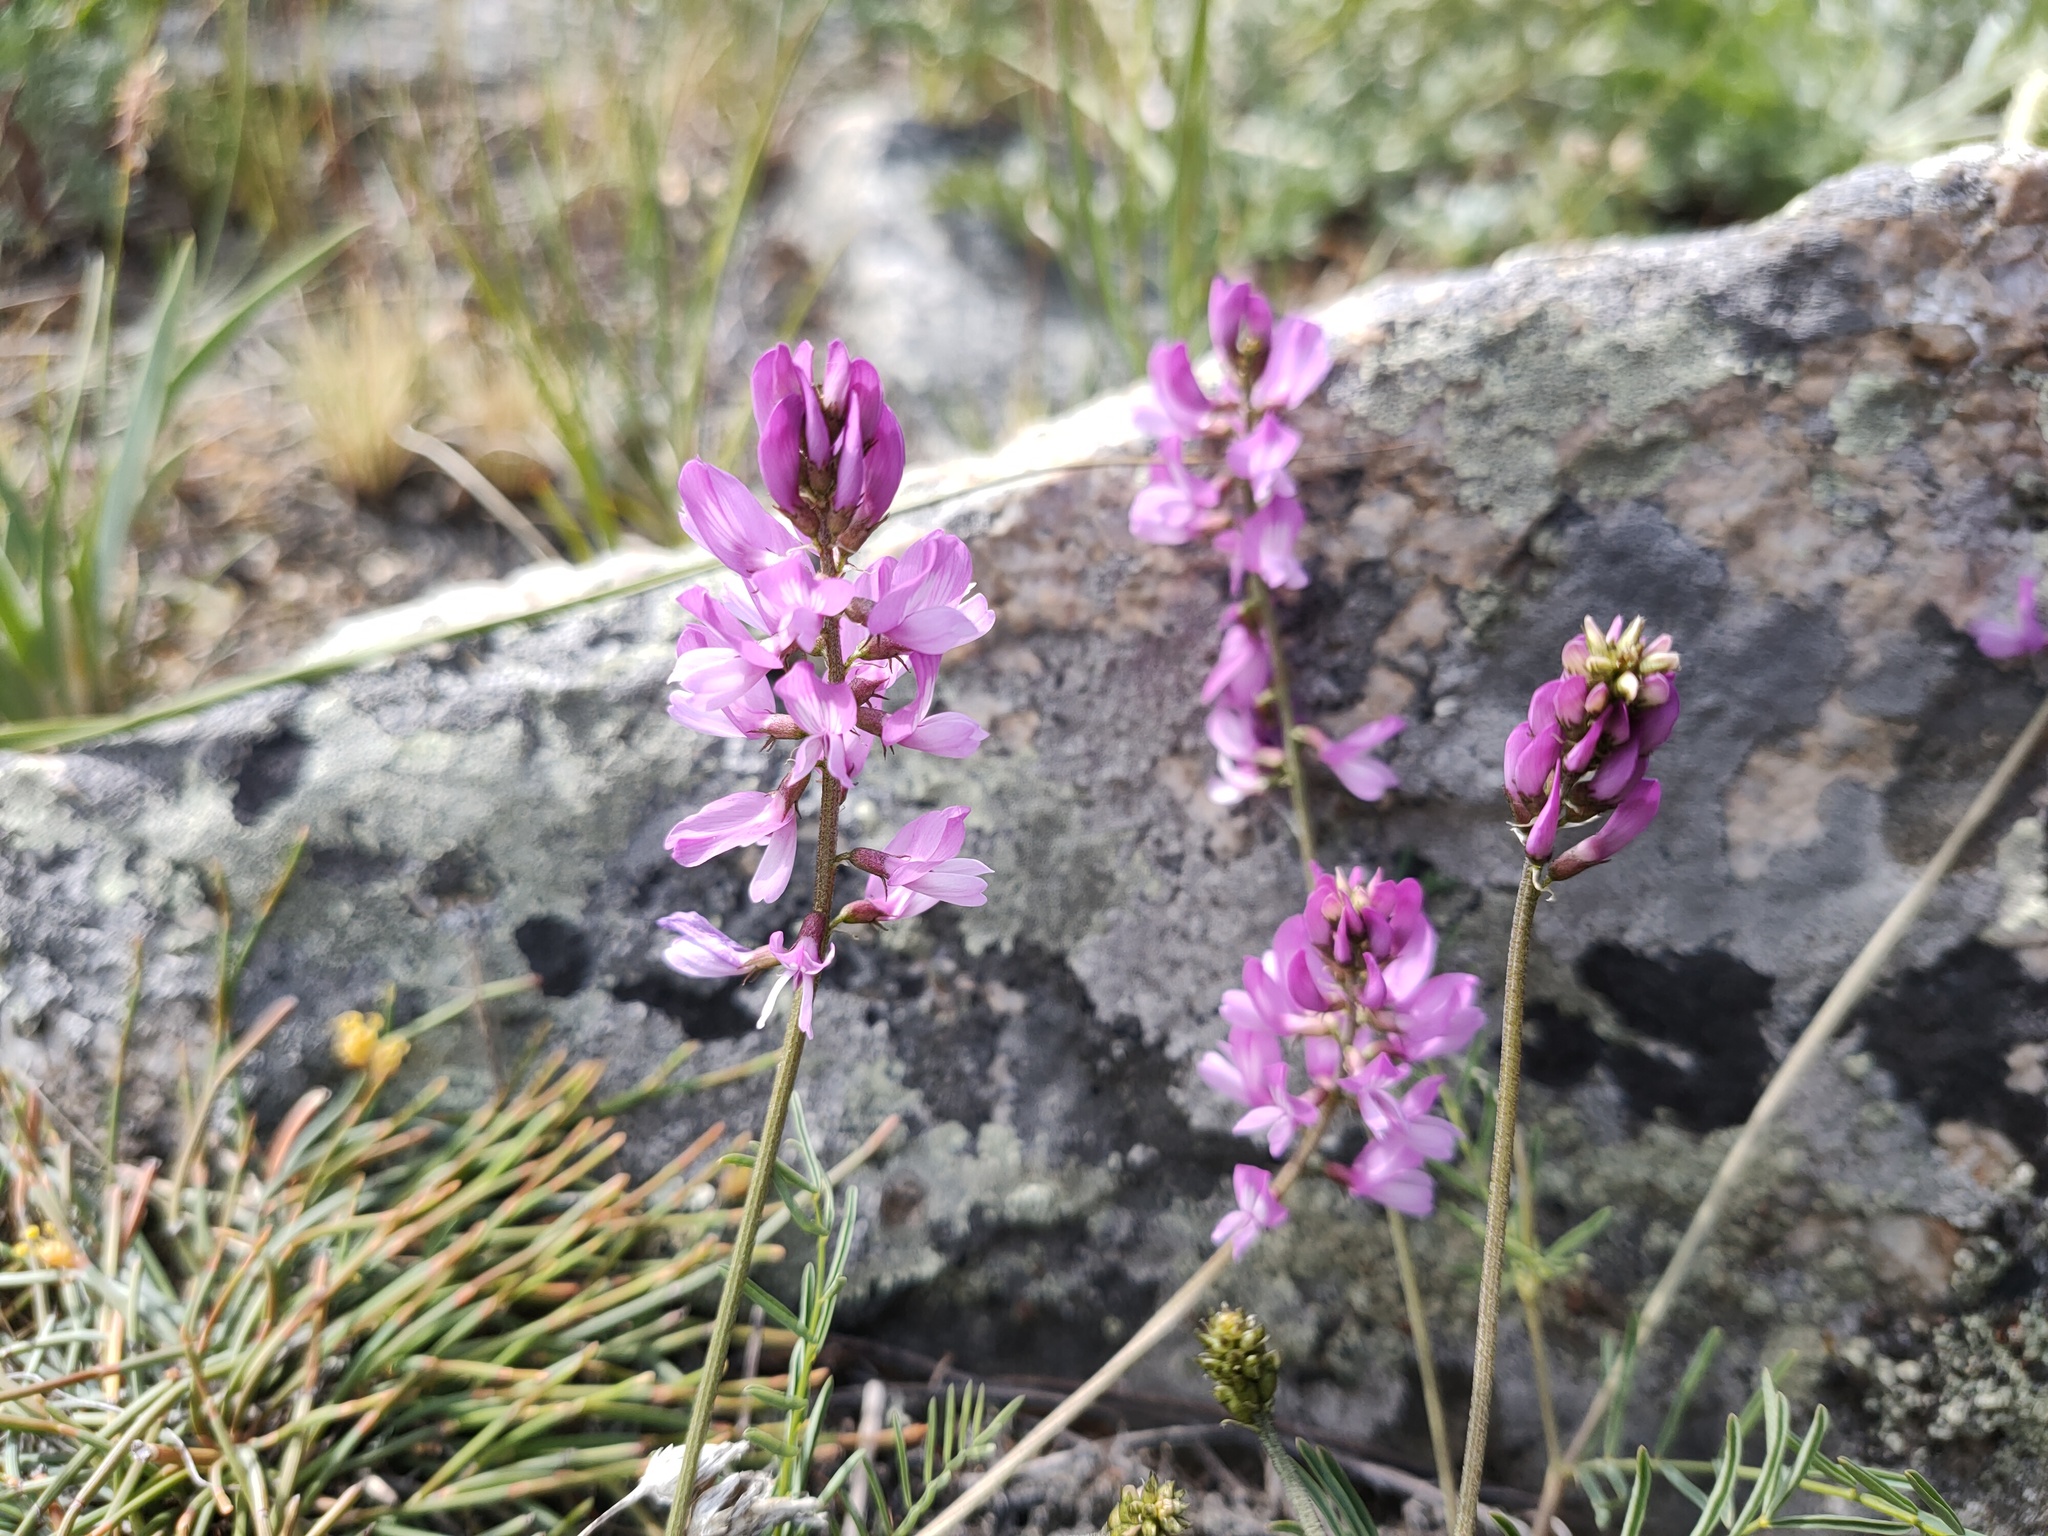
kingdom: Plantae
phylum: Tracheophyta
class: Magnoliopsida
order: Fabales
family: Fabaceae
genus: Astragalus
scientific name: Astragalus versicolor
